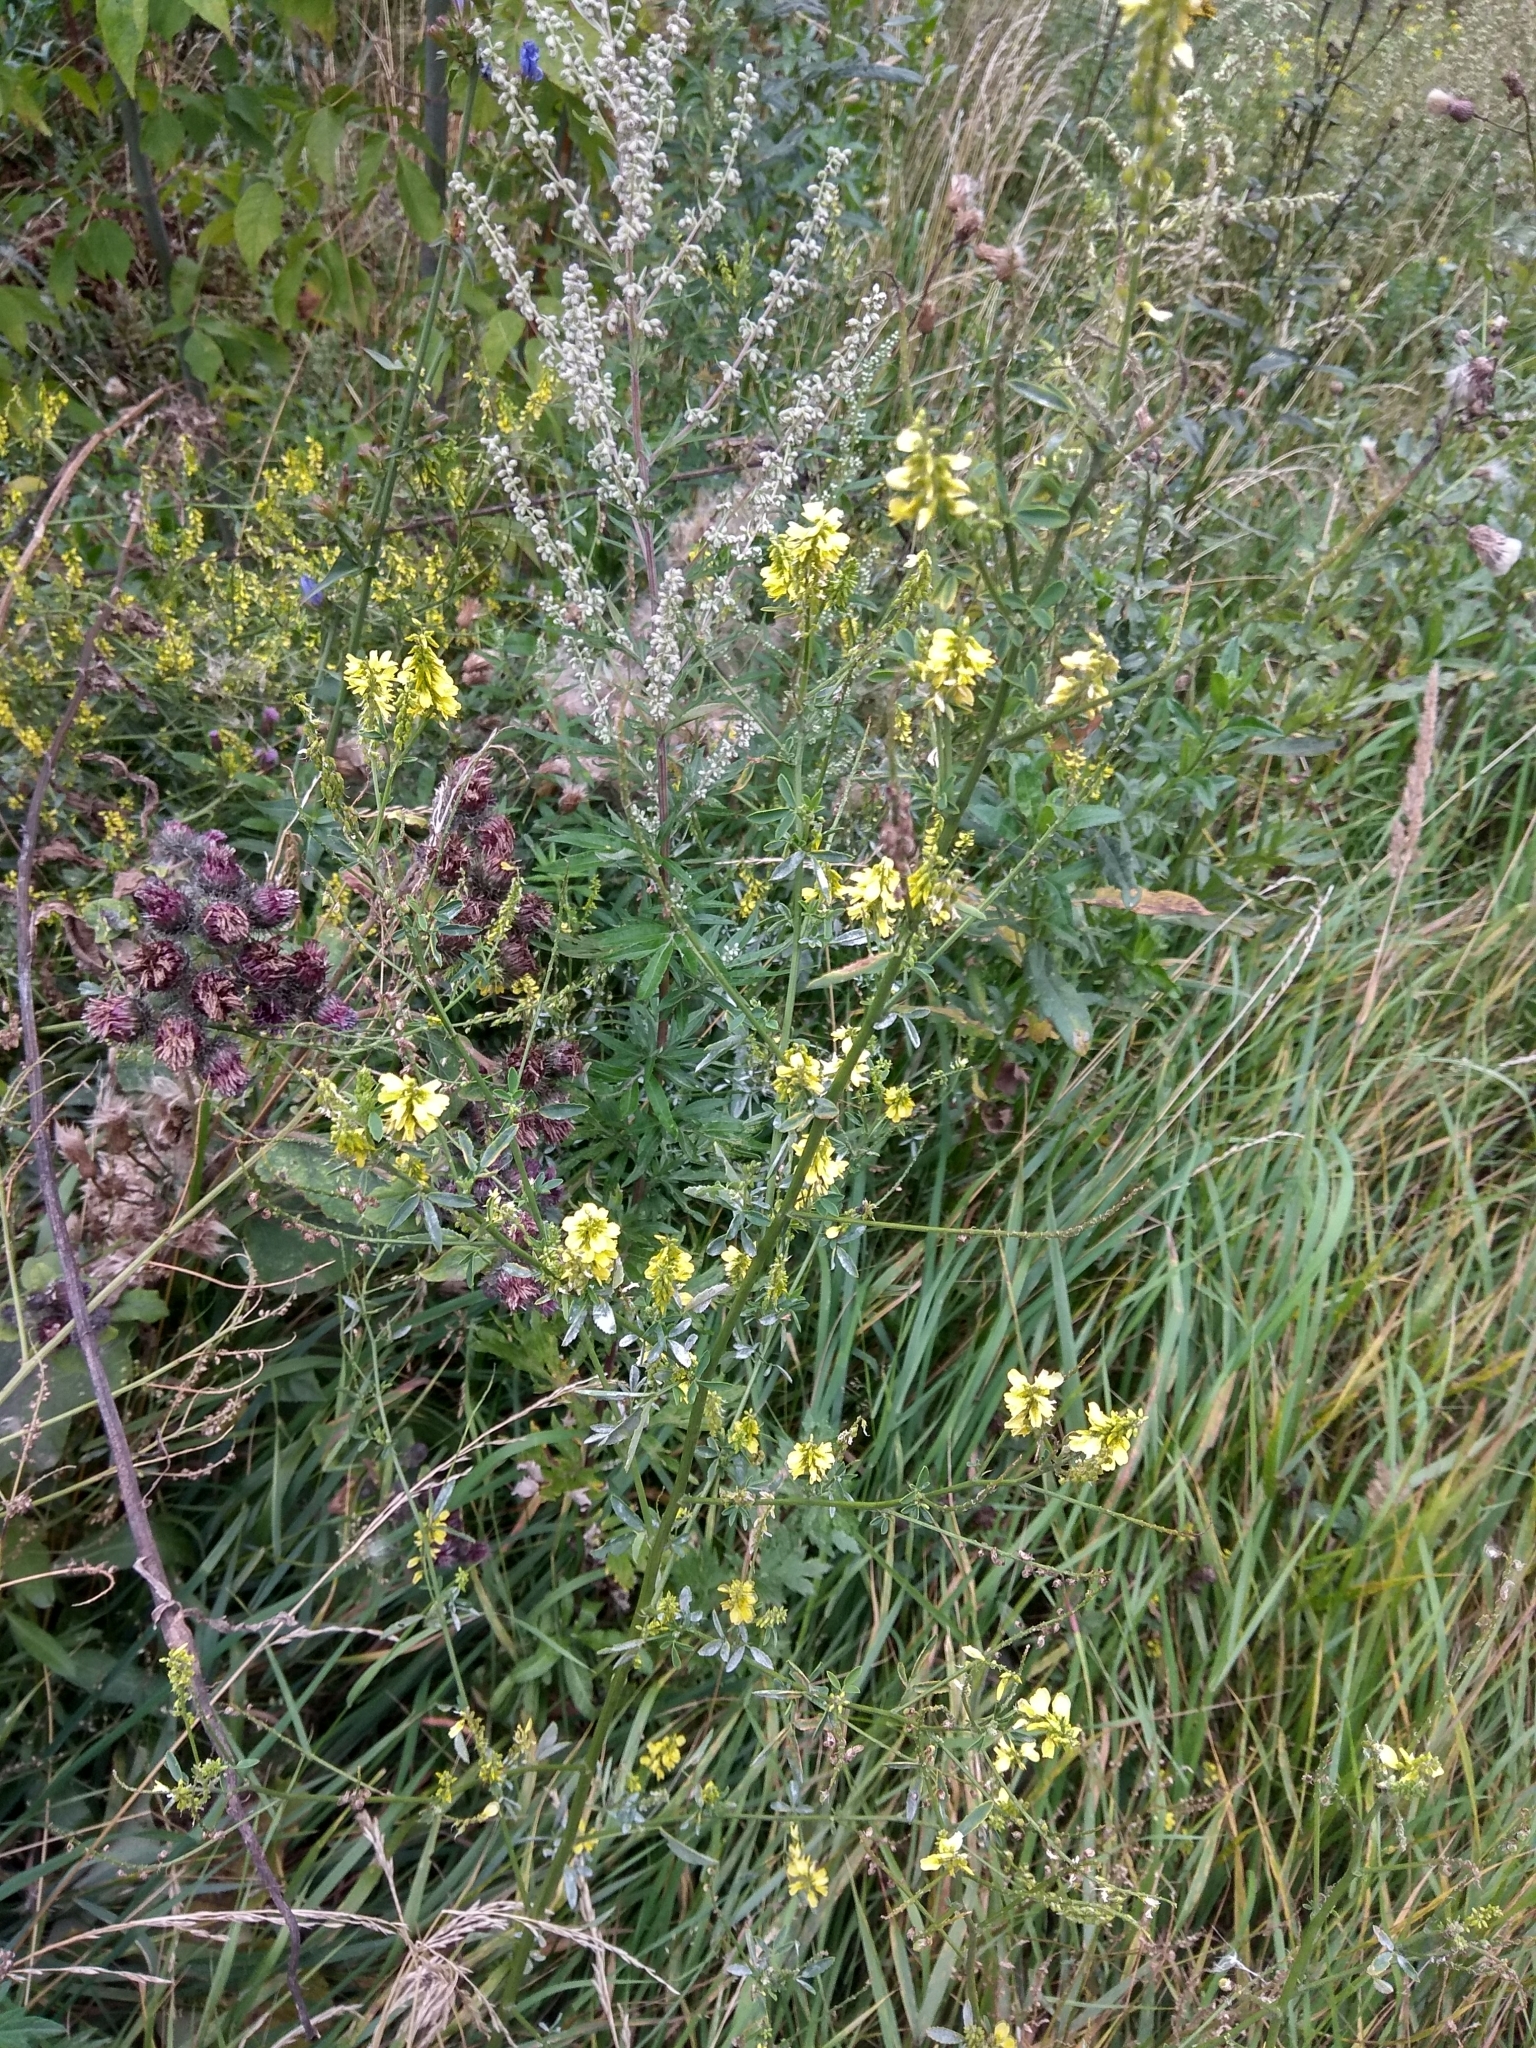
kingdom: Plantae
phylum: Tracheophyta
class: Magnoliopsida
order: Fabales
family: Fabaceae
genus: Melilotus
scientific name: Melilotus officinalis
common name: Sweetclover
